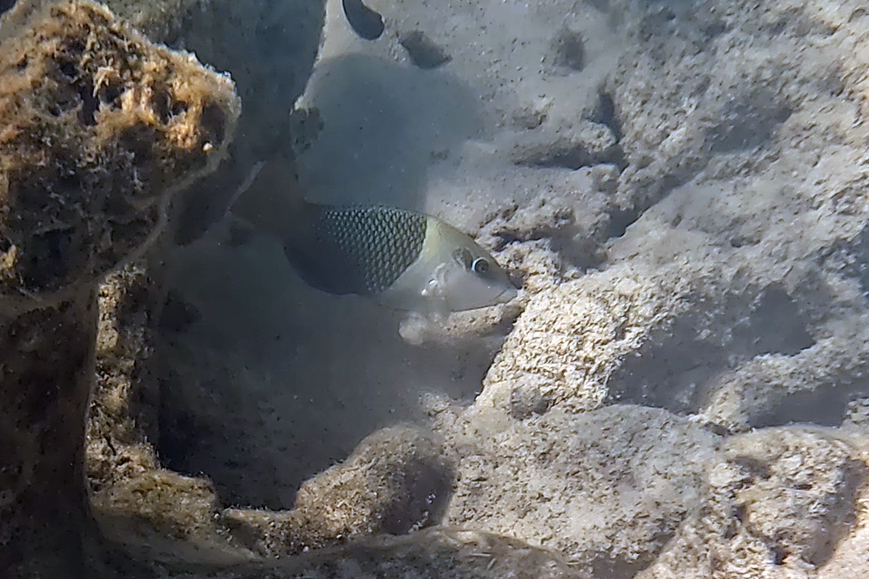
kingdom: Animalia
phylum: Chordata
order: Perciformes
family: Labridae
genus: Hemigymnus
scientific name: Hemigymnus melapterus
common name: Blackeye thicklip
